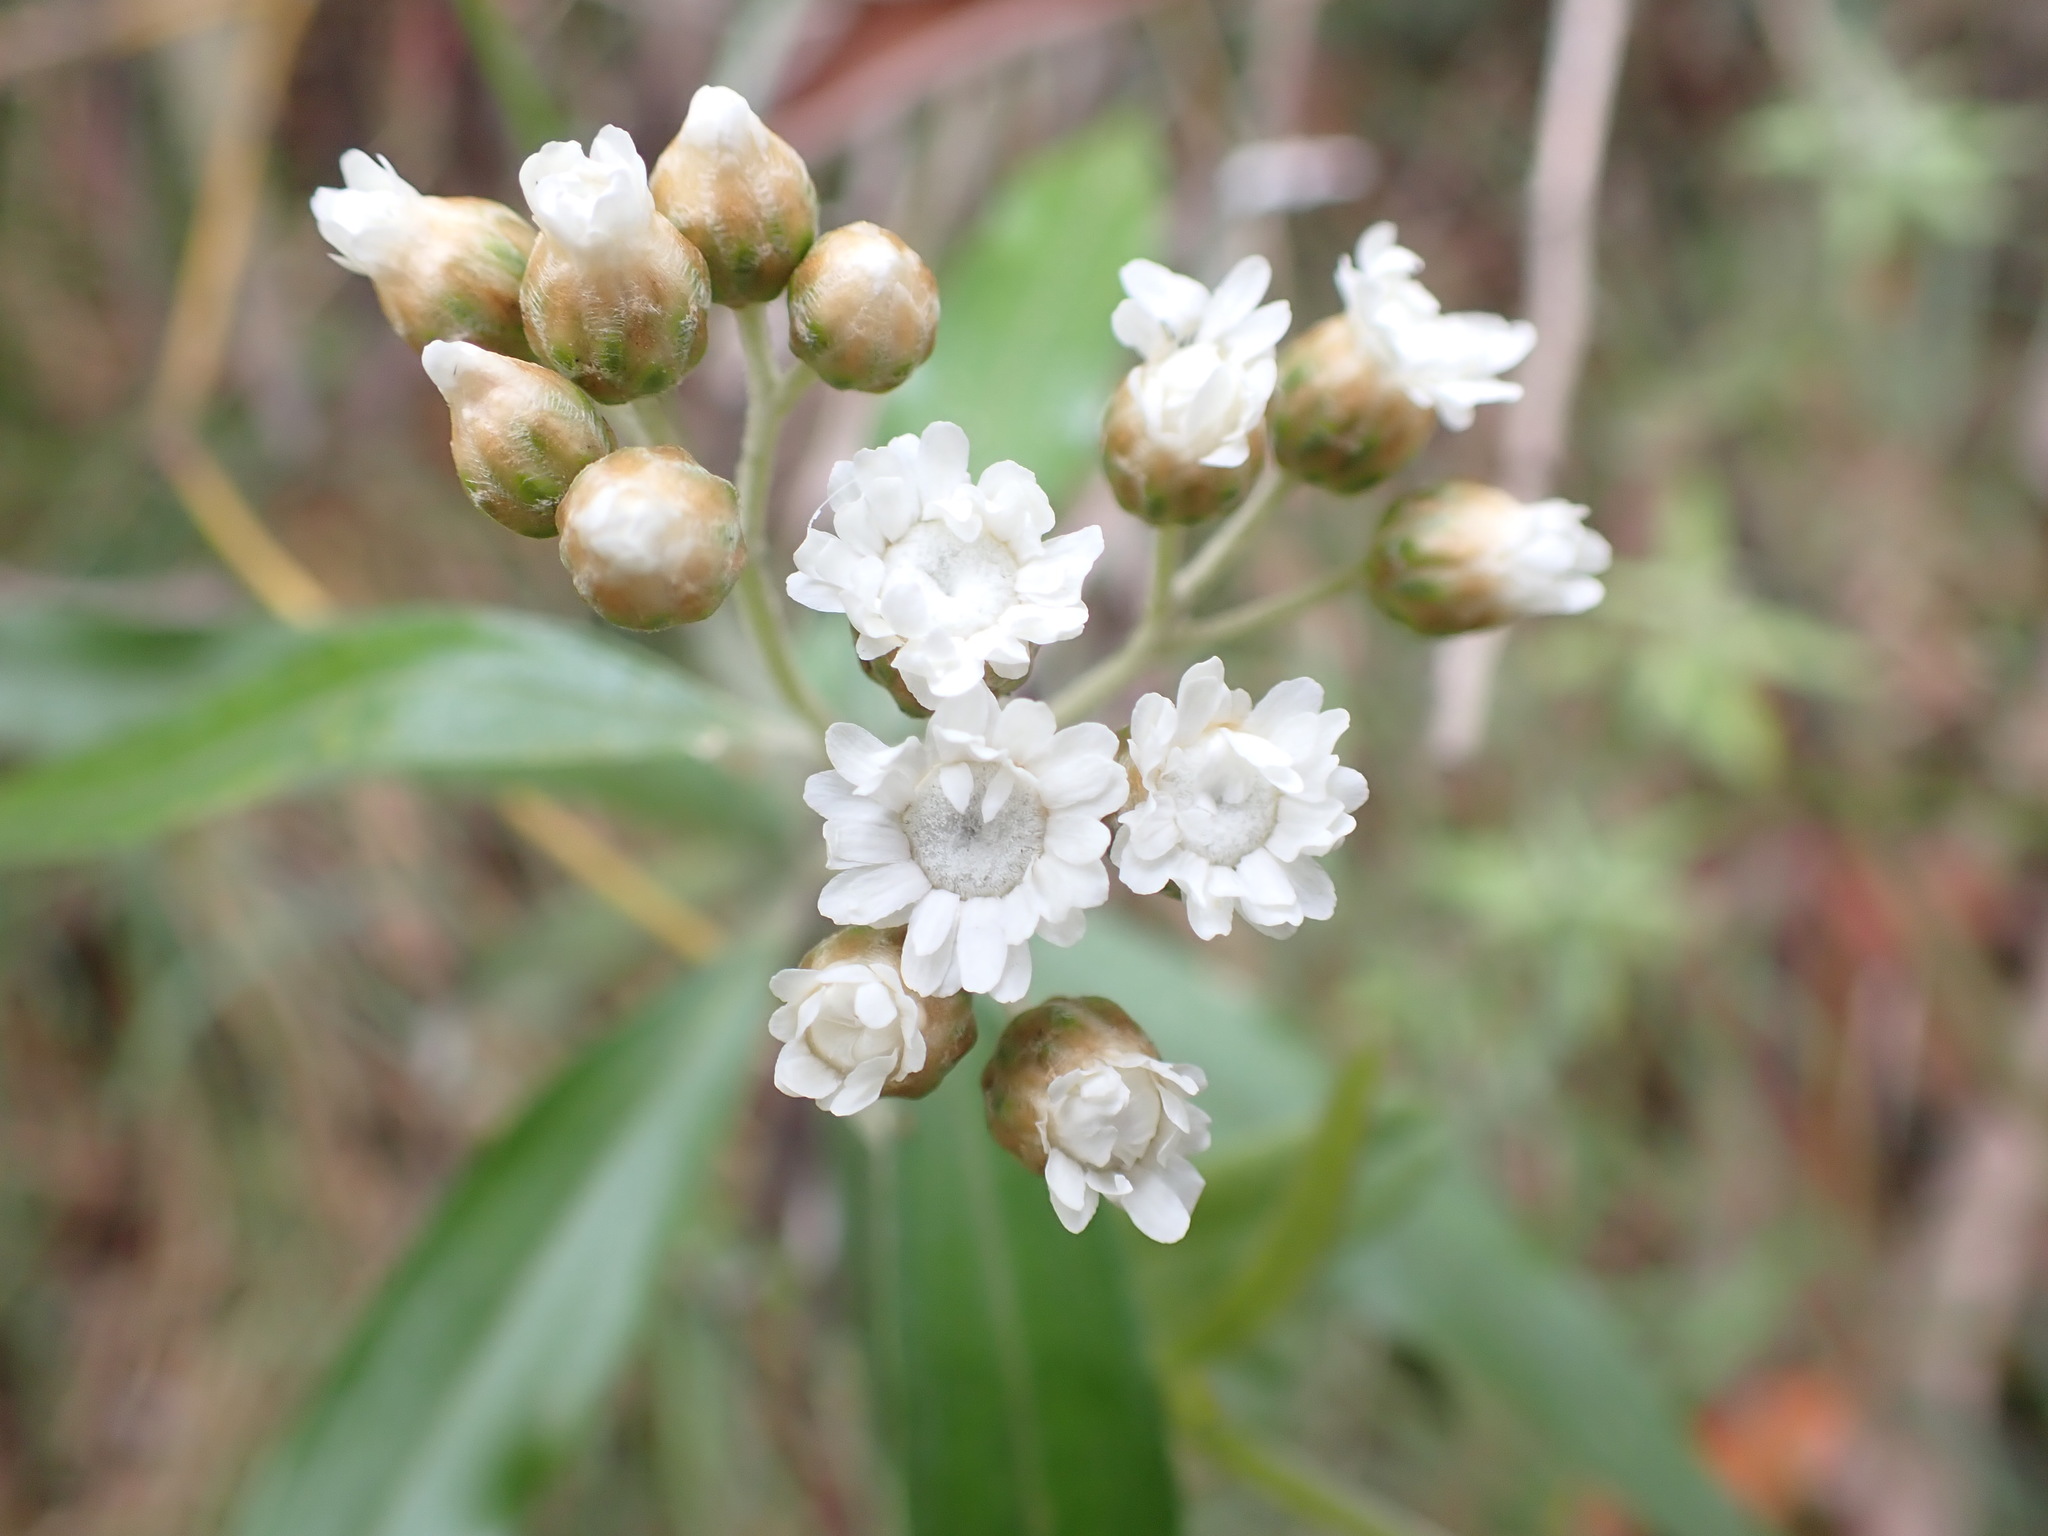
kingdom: Plantae
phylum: Tracheophyta
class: Magnoliopsida
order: Asterales
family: Asteraceae
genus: Ozothamnus
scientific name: Ozothamnus stirlingii
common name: Ovens everlasting
